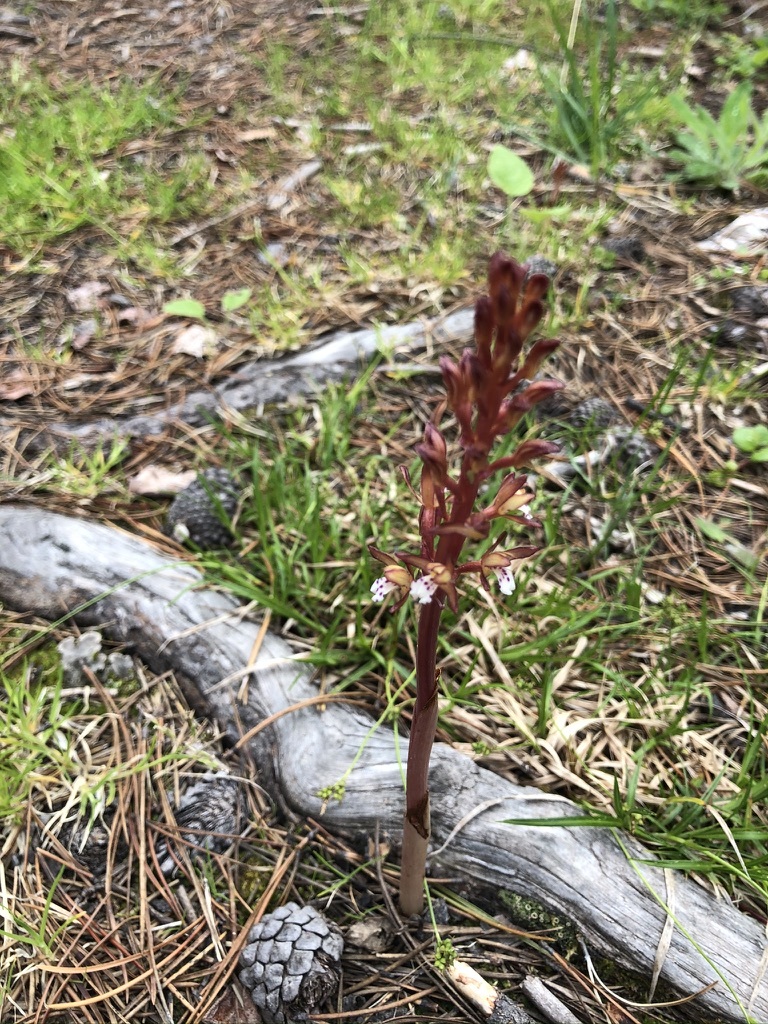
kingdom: Plantae
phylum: Tracheophyta
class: Liliopsida
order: Asparagales
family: Orchidaceae
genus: Corallorhiza
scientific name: Corallorhiza maculata
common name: Spotted coralroot
